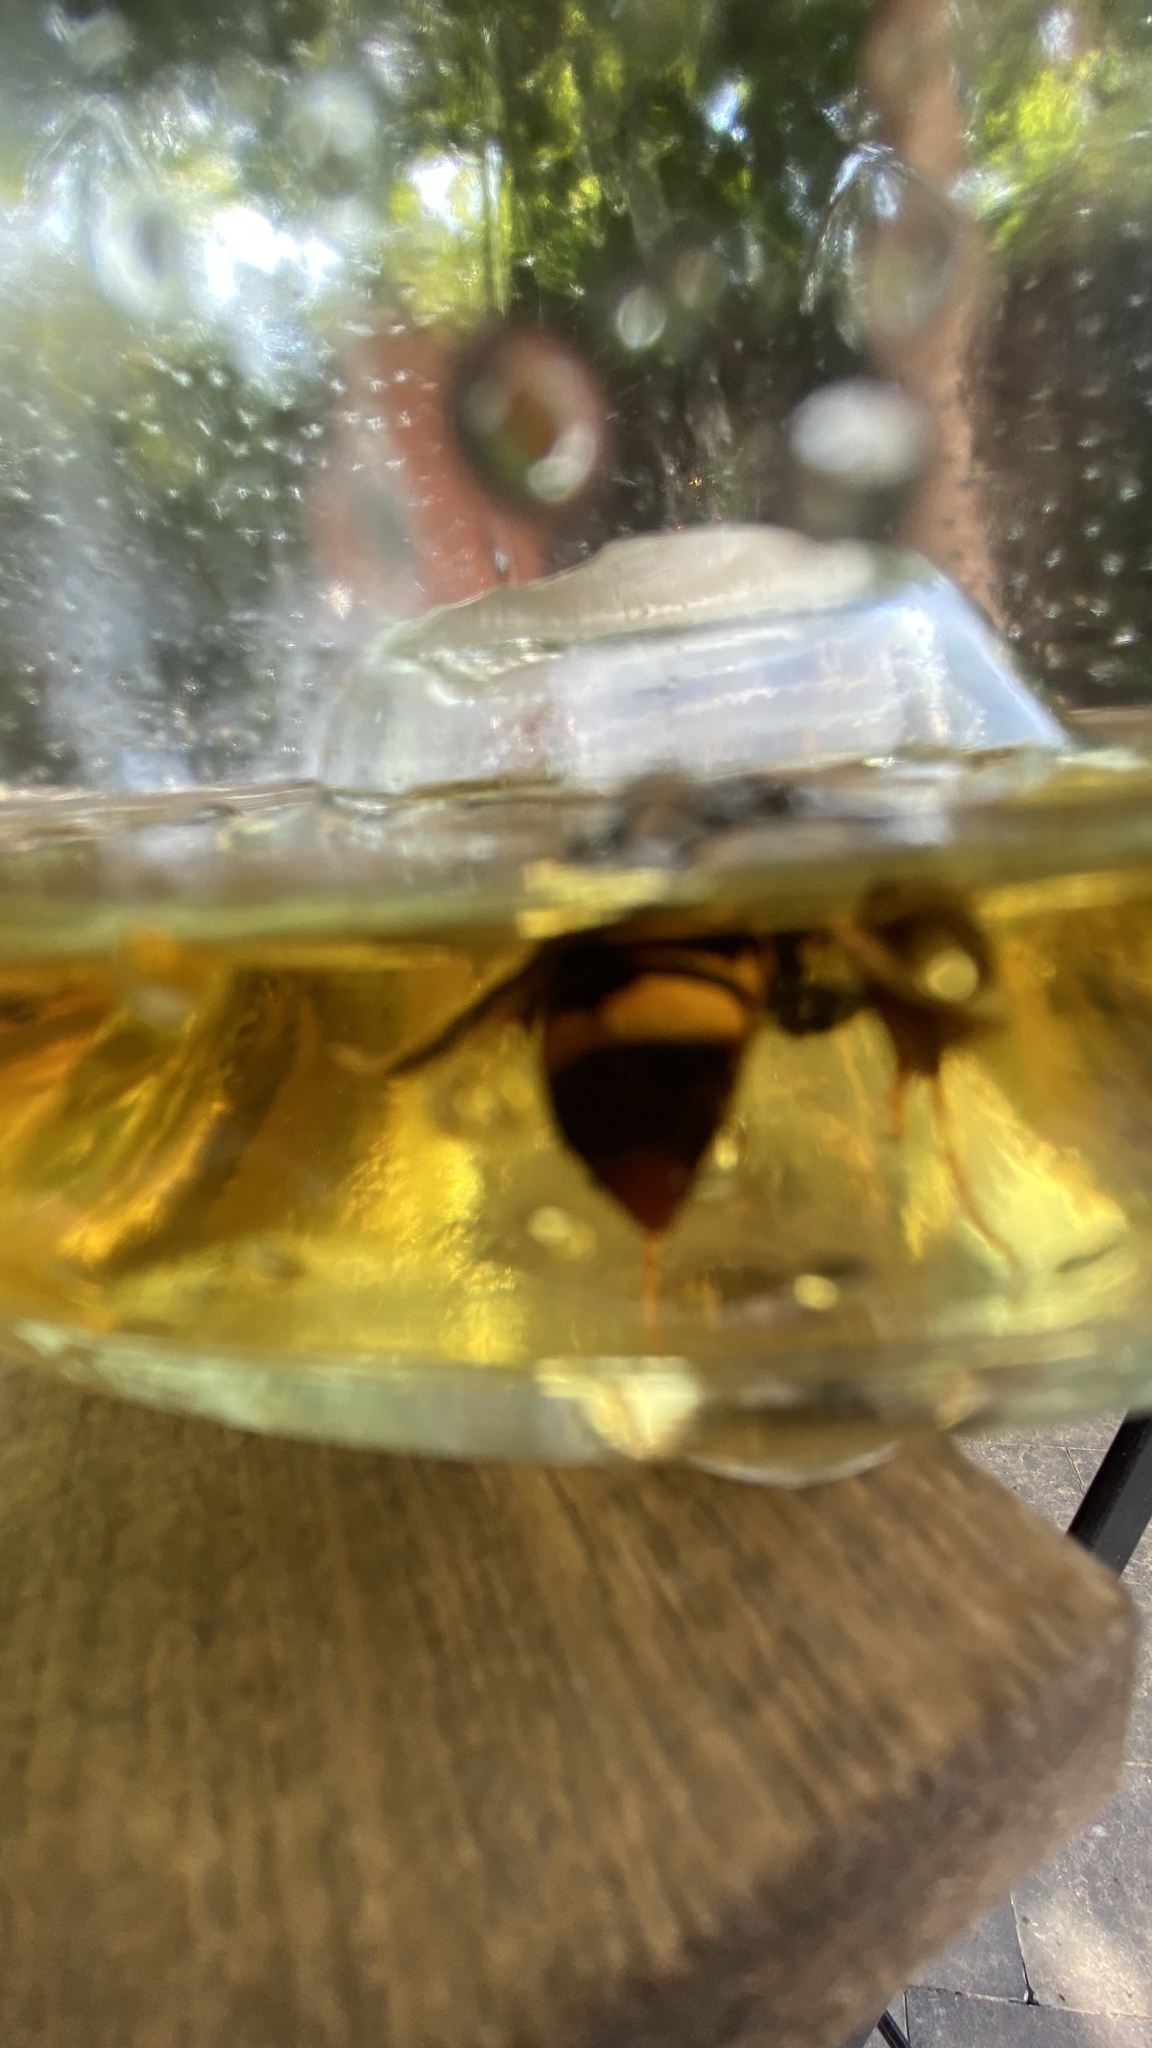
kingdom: Animalia
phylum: Arthropoda
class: Insecta
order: Hymenoptera
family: Vespidae
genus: Vespa
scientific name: Vespa velutina
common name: Asian hornet
